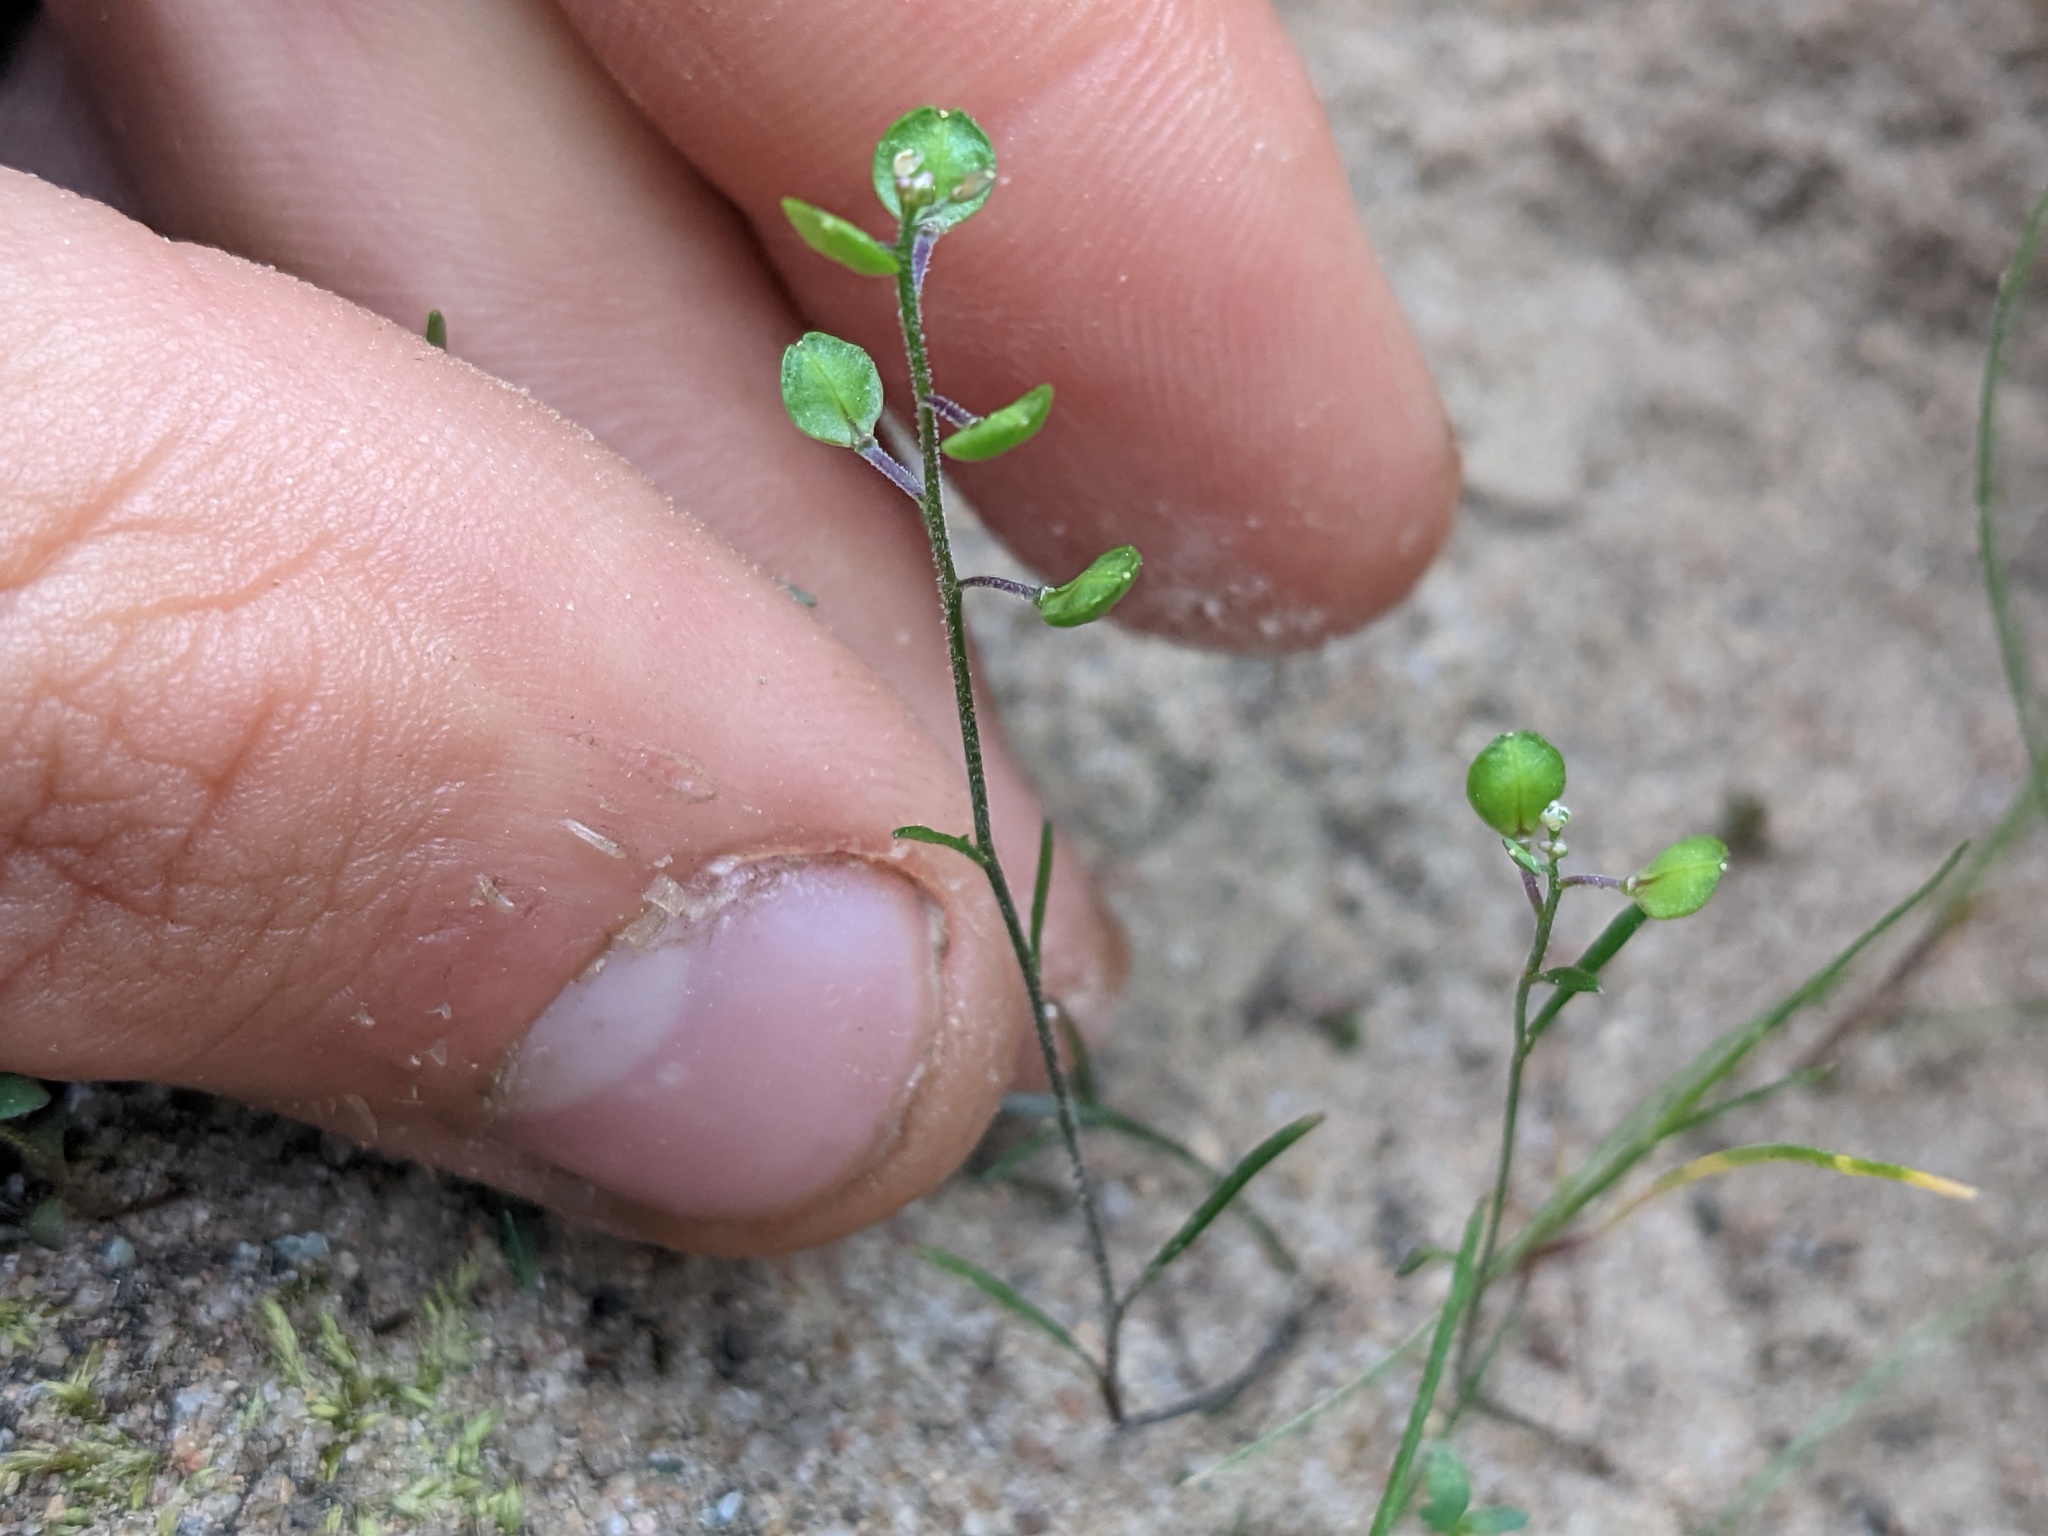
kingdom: Plantae
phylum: Tracheophyta
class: Magnoliopsida
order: Brassicales
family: Brassicaceae
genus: Lepidium
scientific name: Lepidium nitidum
